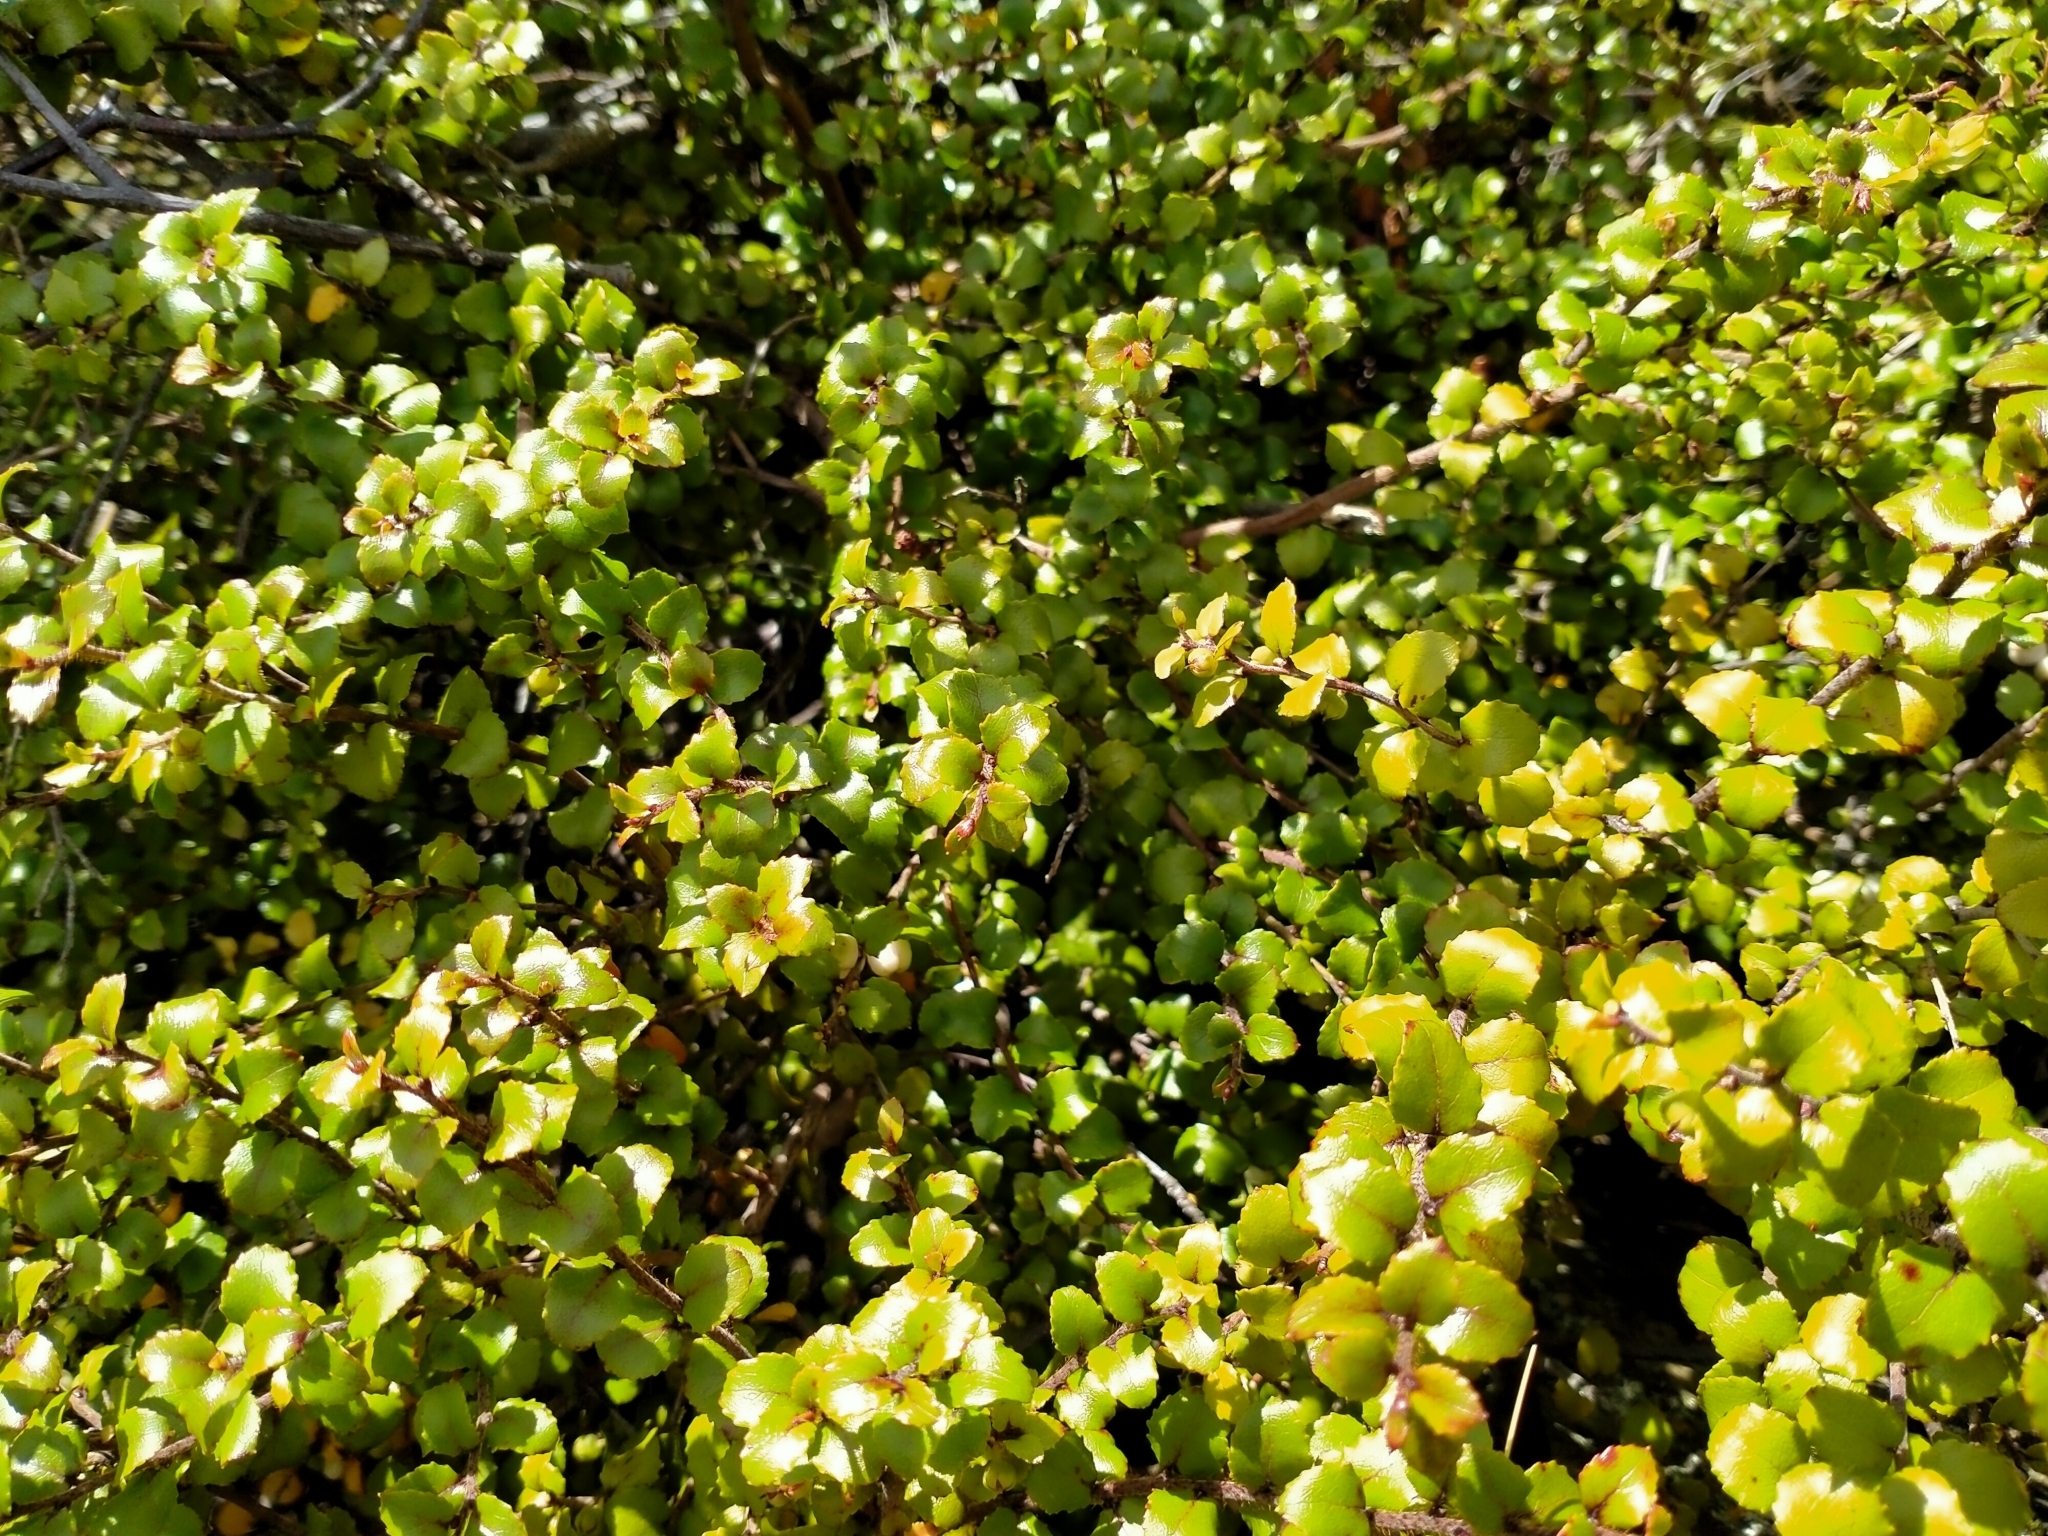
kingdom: Plantae
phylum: Tracheophyta
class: Magnoliopsida
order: Ericales
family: Ericaceae
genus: Gaultheria
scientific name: Gaultheria antipoda
